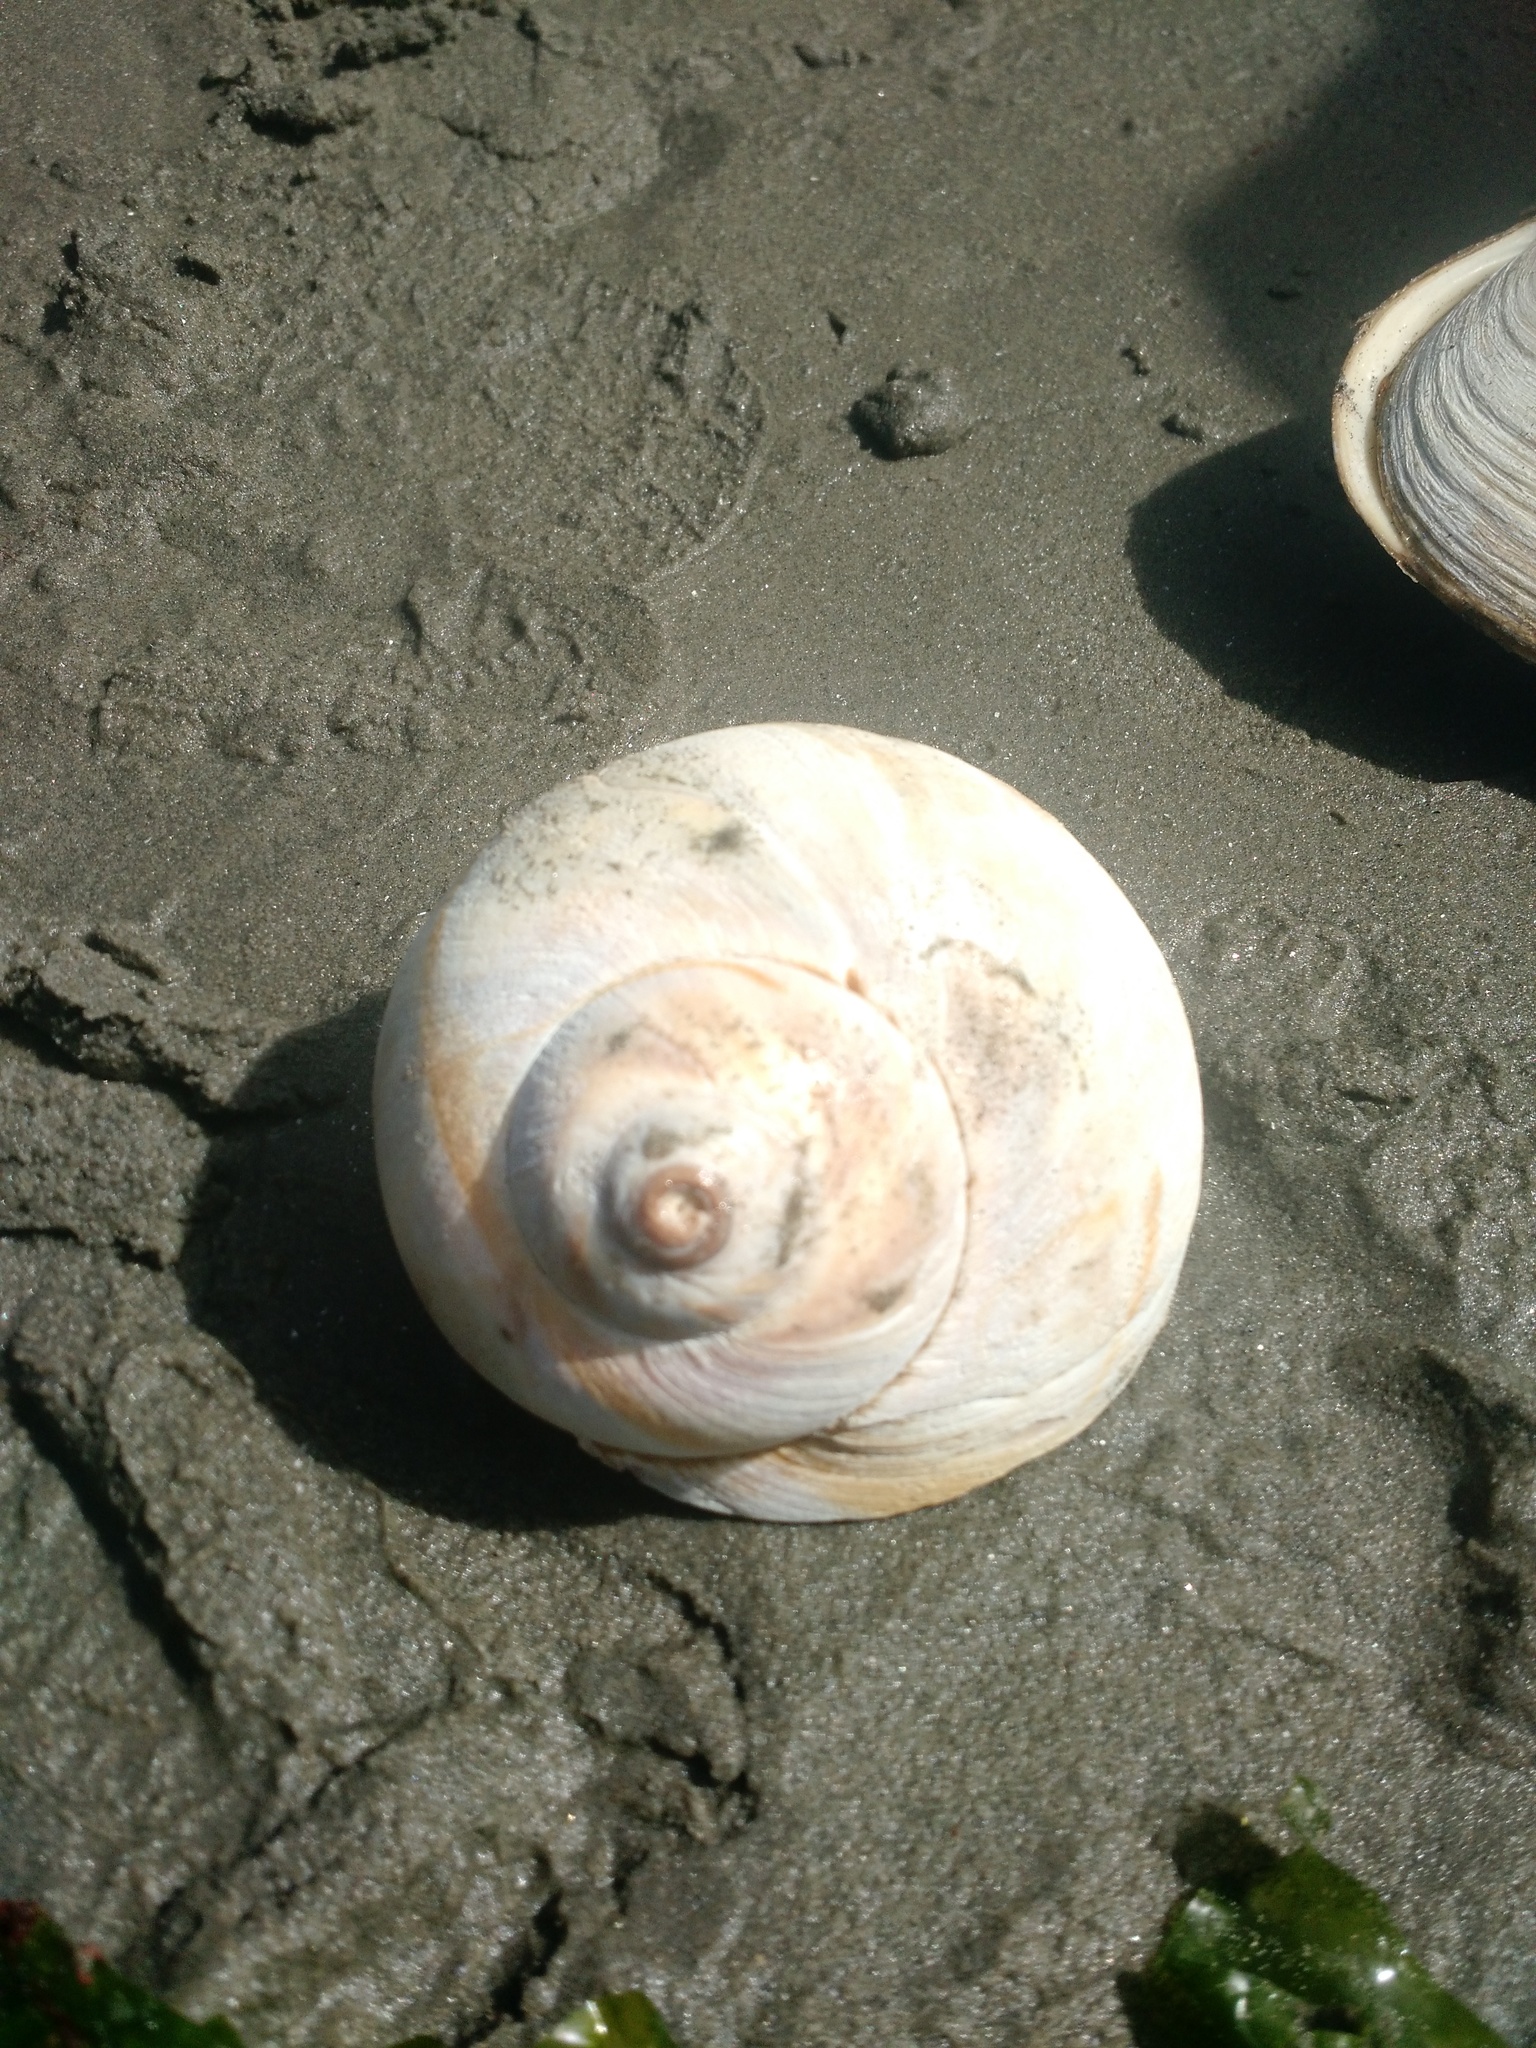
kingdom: Animalia
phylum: Mollusca
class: Gastropoda
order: Littorinimorpha
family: Naticidae
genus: Euspira
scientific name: Euspira heros
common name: Common northern moonsnail
